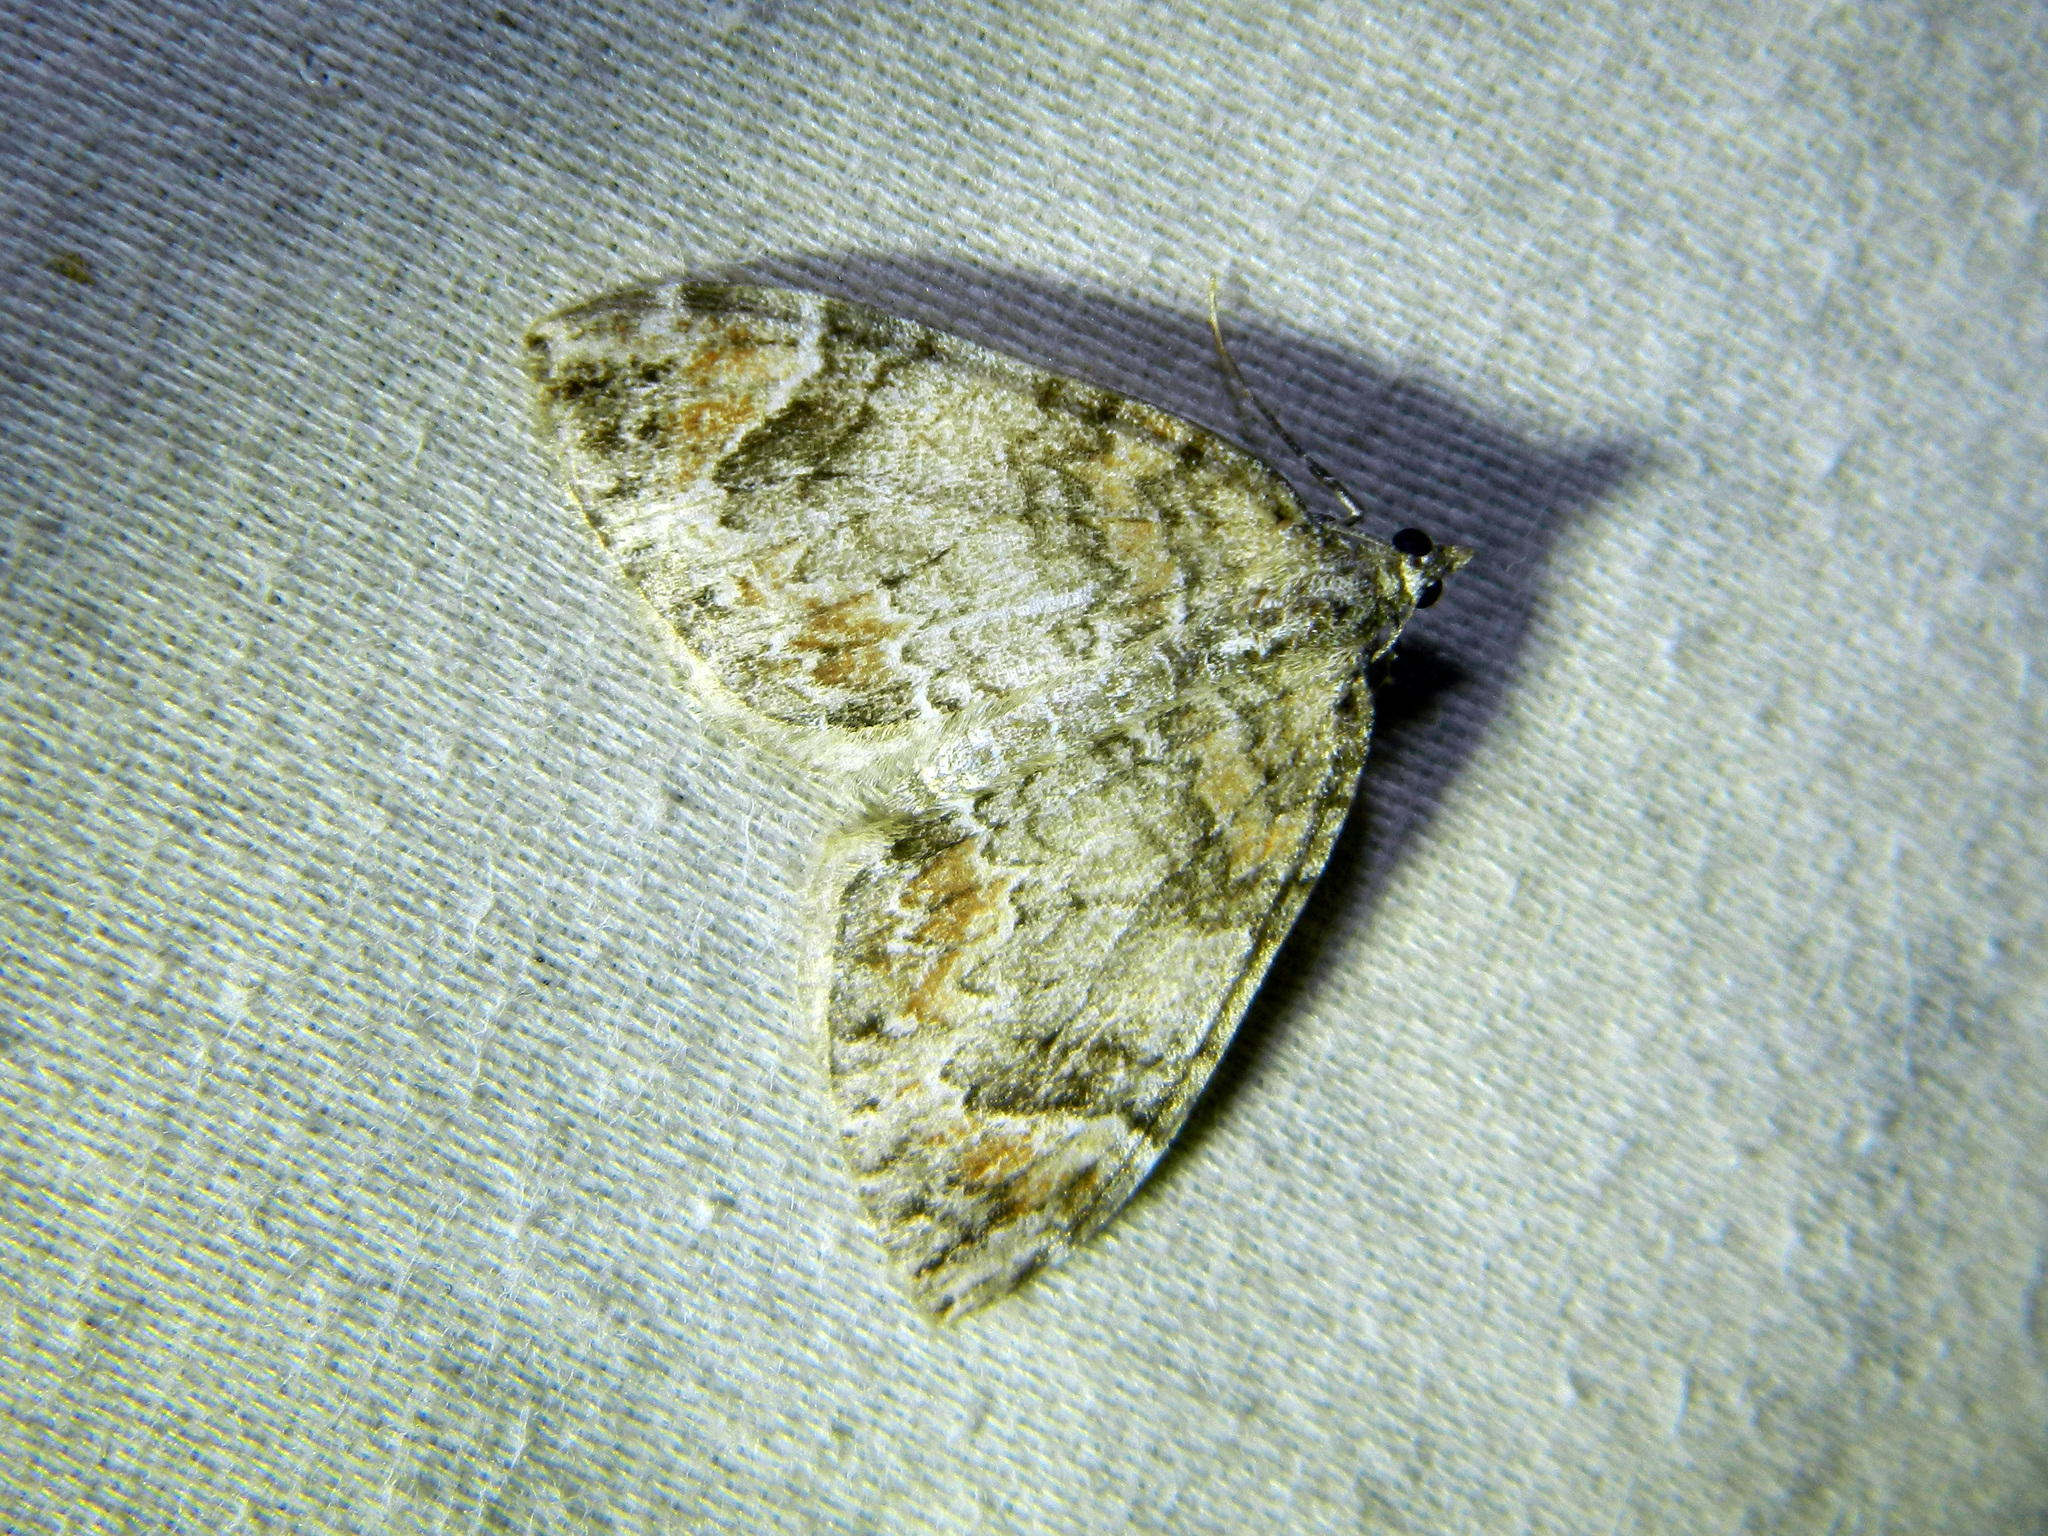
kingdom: Animalia
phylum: Arthropoda
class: Insecta
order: Lepidoptera
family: Geometridae
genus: Dysstroma
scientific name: Dysstroma citrata
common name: Dark marbled carpet
